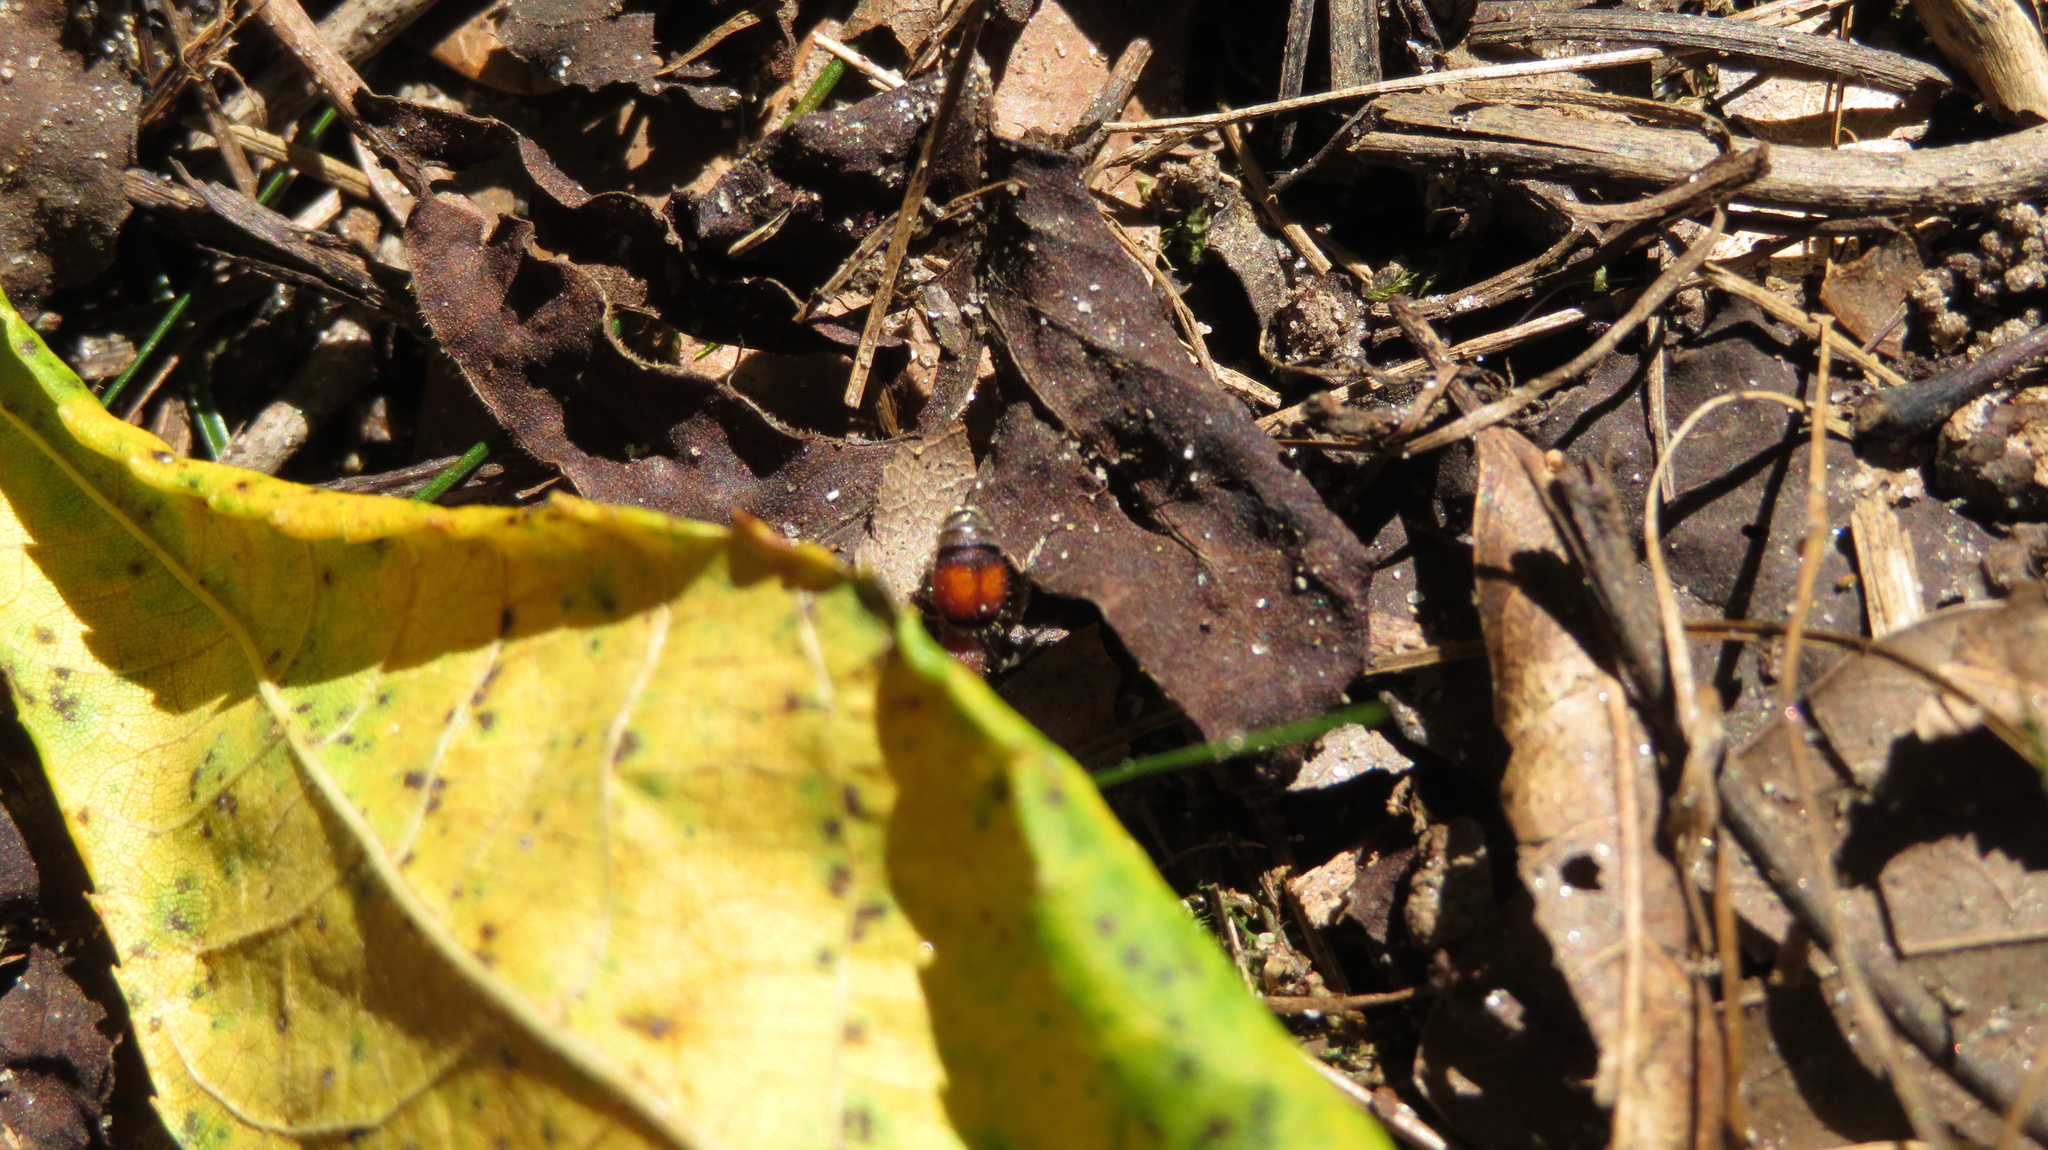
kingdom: Animalia
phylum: Arthropoda
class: Insecta
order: Hymenoptera
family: Mutillidae
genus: Pseudomethoca
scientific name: Pseudomethoca
